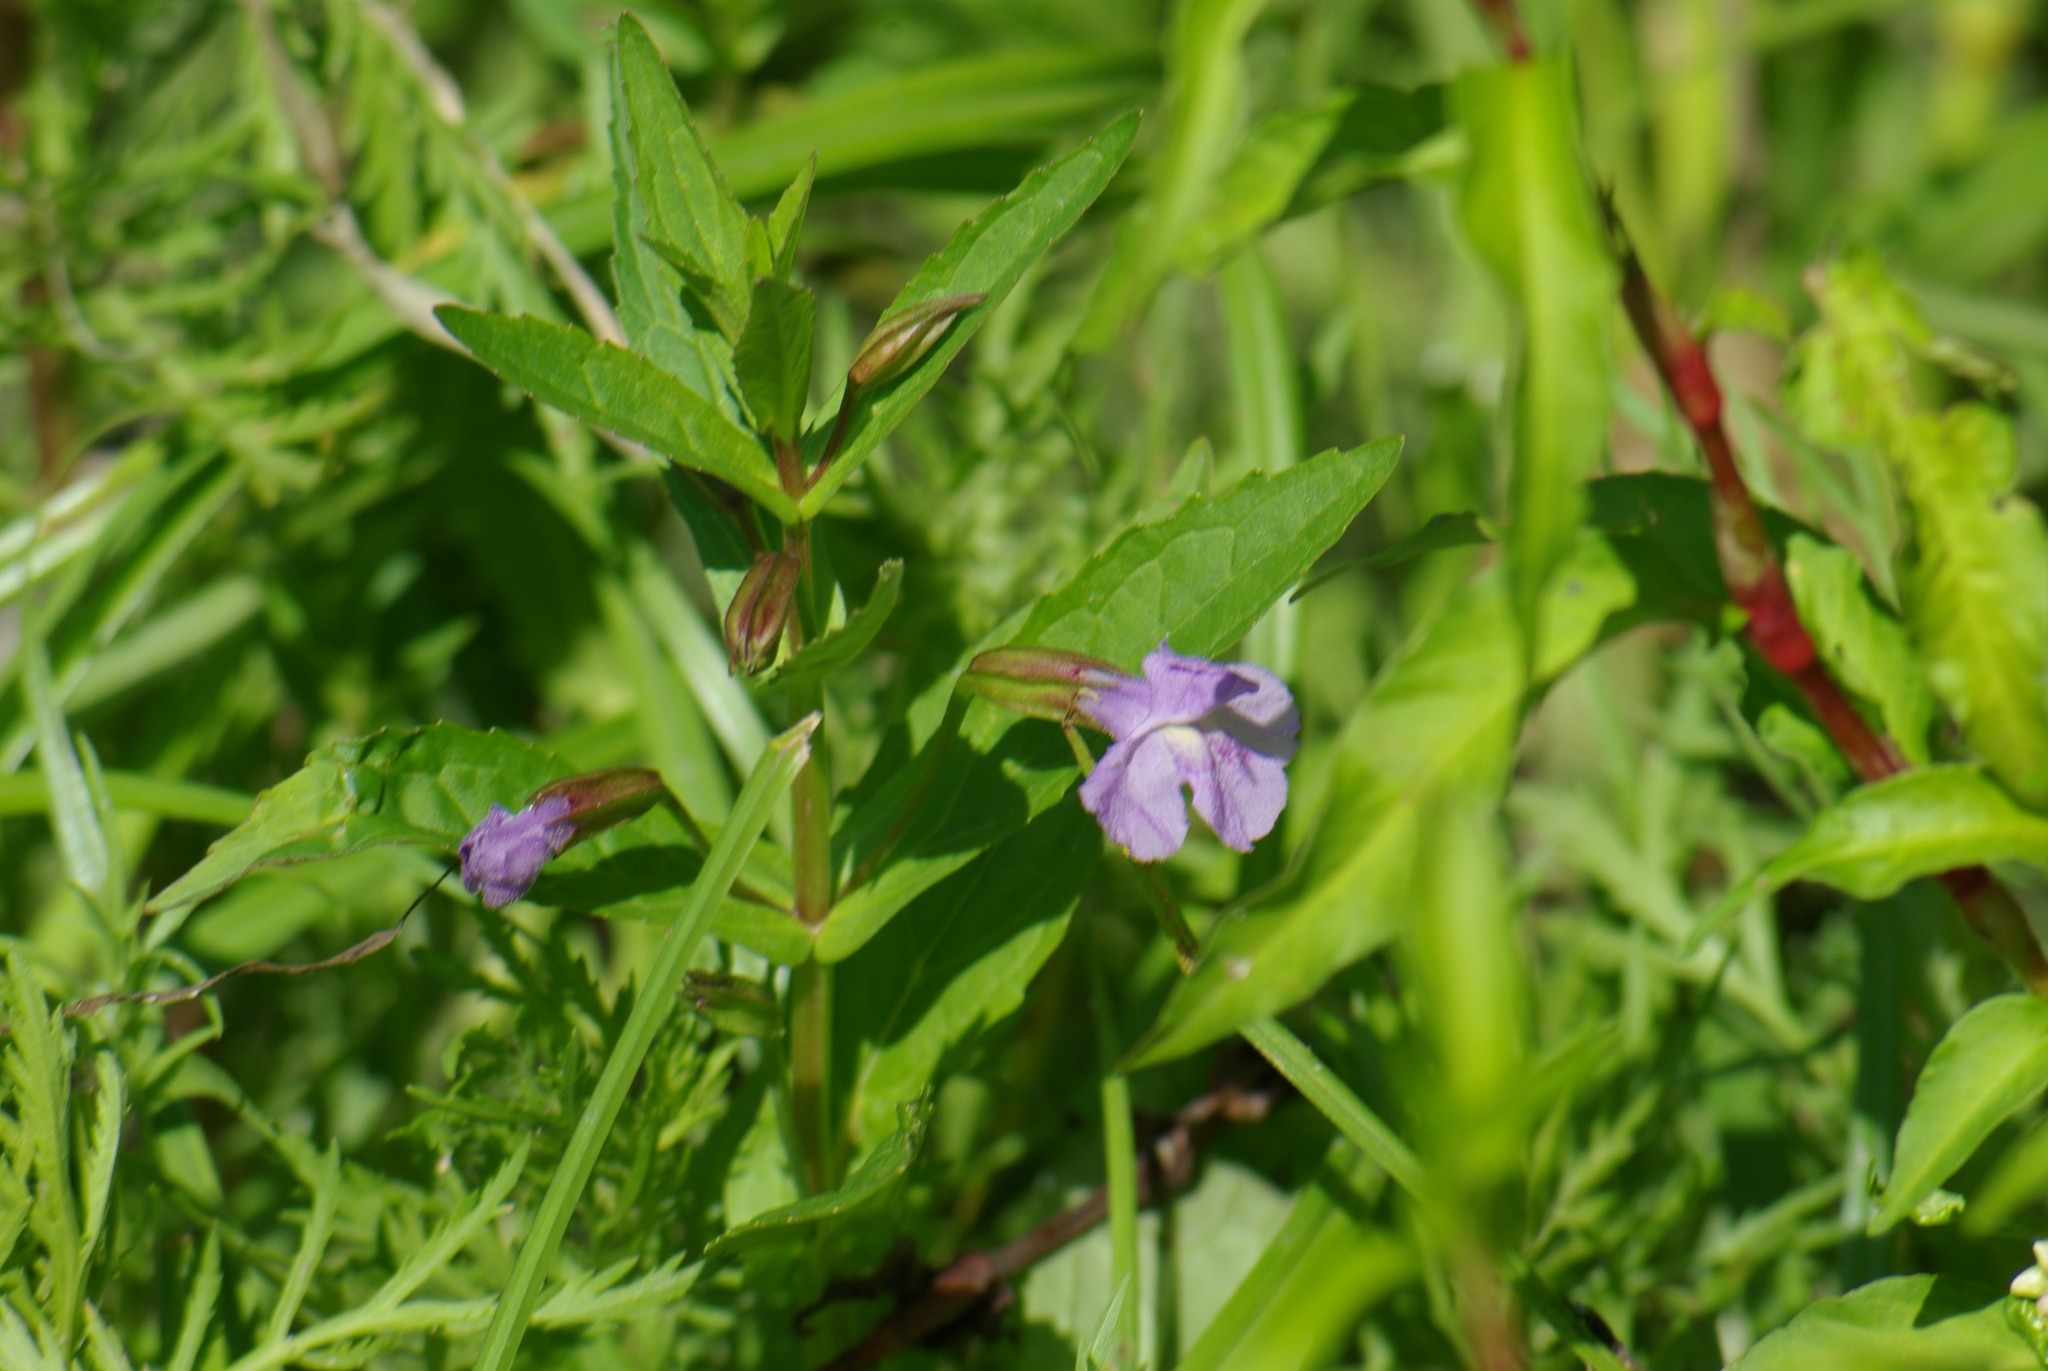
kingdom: Plantae
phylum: Tracheophyta
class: Magnoliopsida
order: Lamiales
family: Phrymaceae
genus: Mimulus
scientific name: Mimulus ringens
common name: Allegheny monkeyflower
